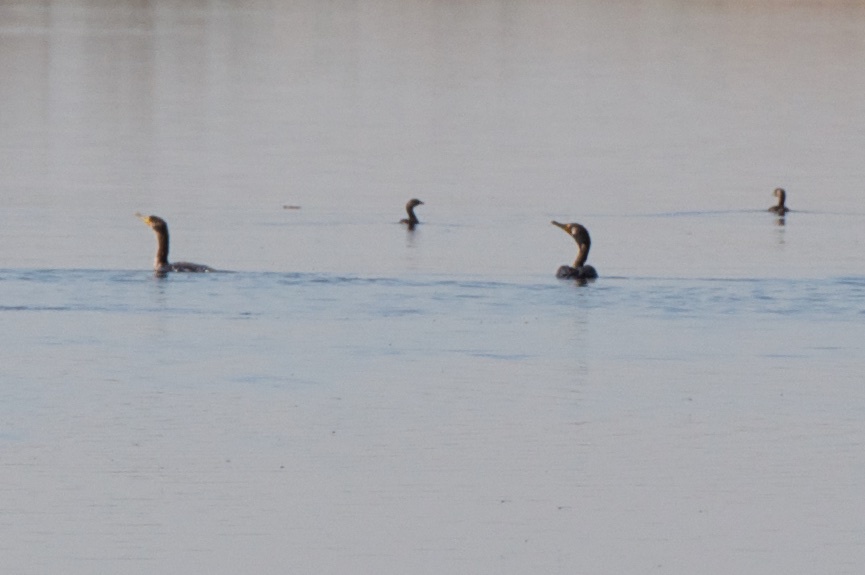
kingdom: Animalia
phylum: Chordata
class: Aves
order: Suliformes
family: Phalacrocoracidae
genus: Phalacrocorax
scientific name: Phalacrocorax auritus
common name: Double-crested cormorant
